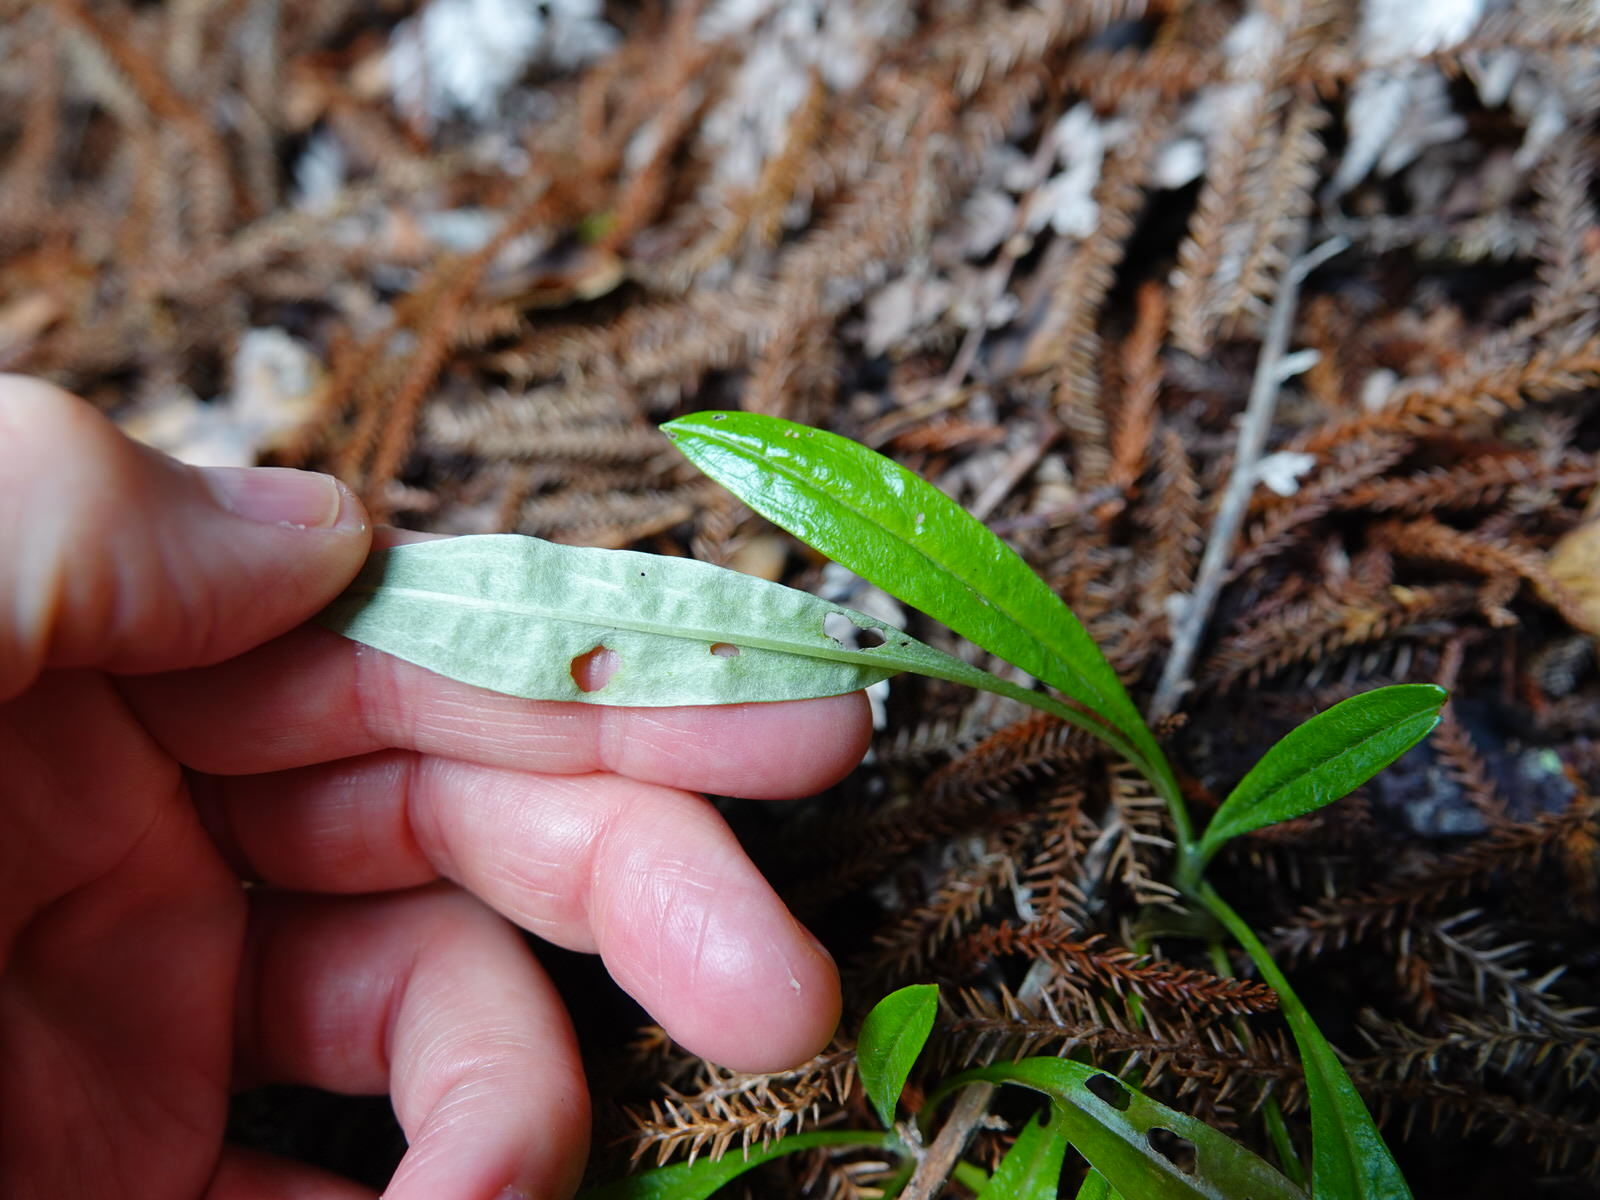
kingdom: Plantae
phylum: Tracheophyta
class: Magnoliopsida
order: Asterales
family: Asteraceae
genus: Euchiton
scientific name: Euchiton japonicus
